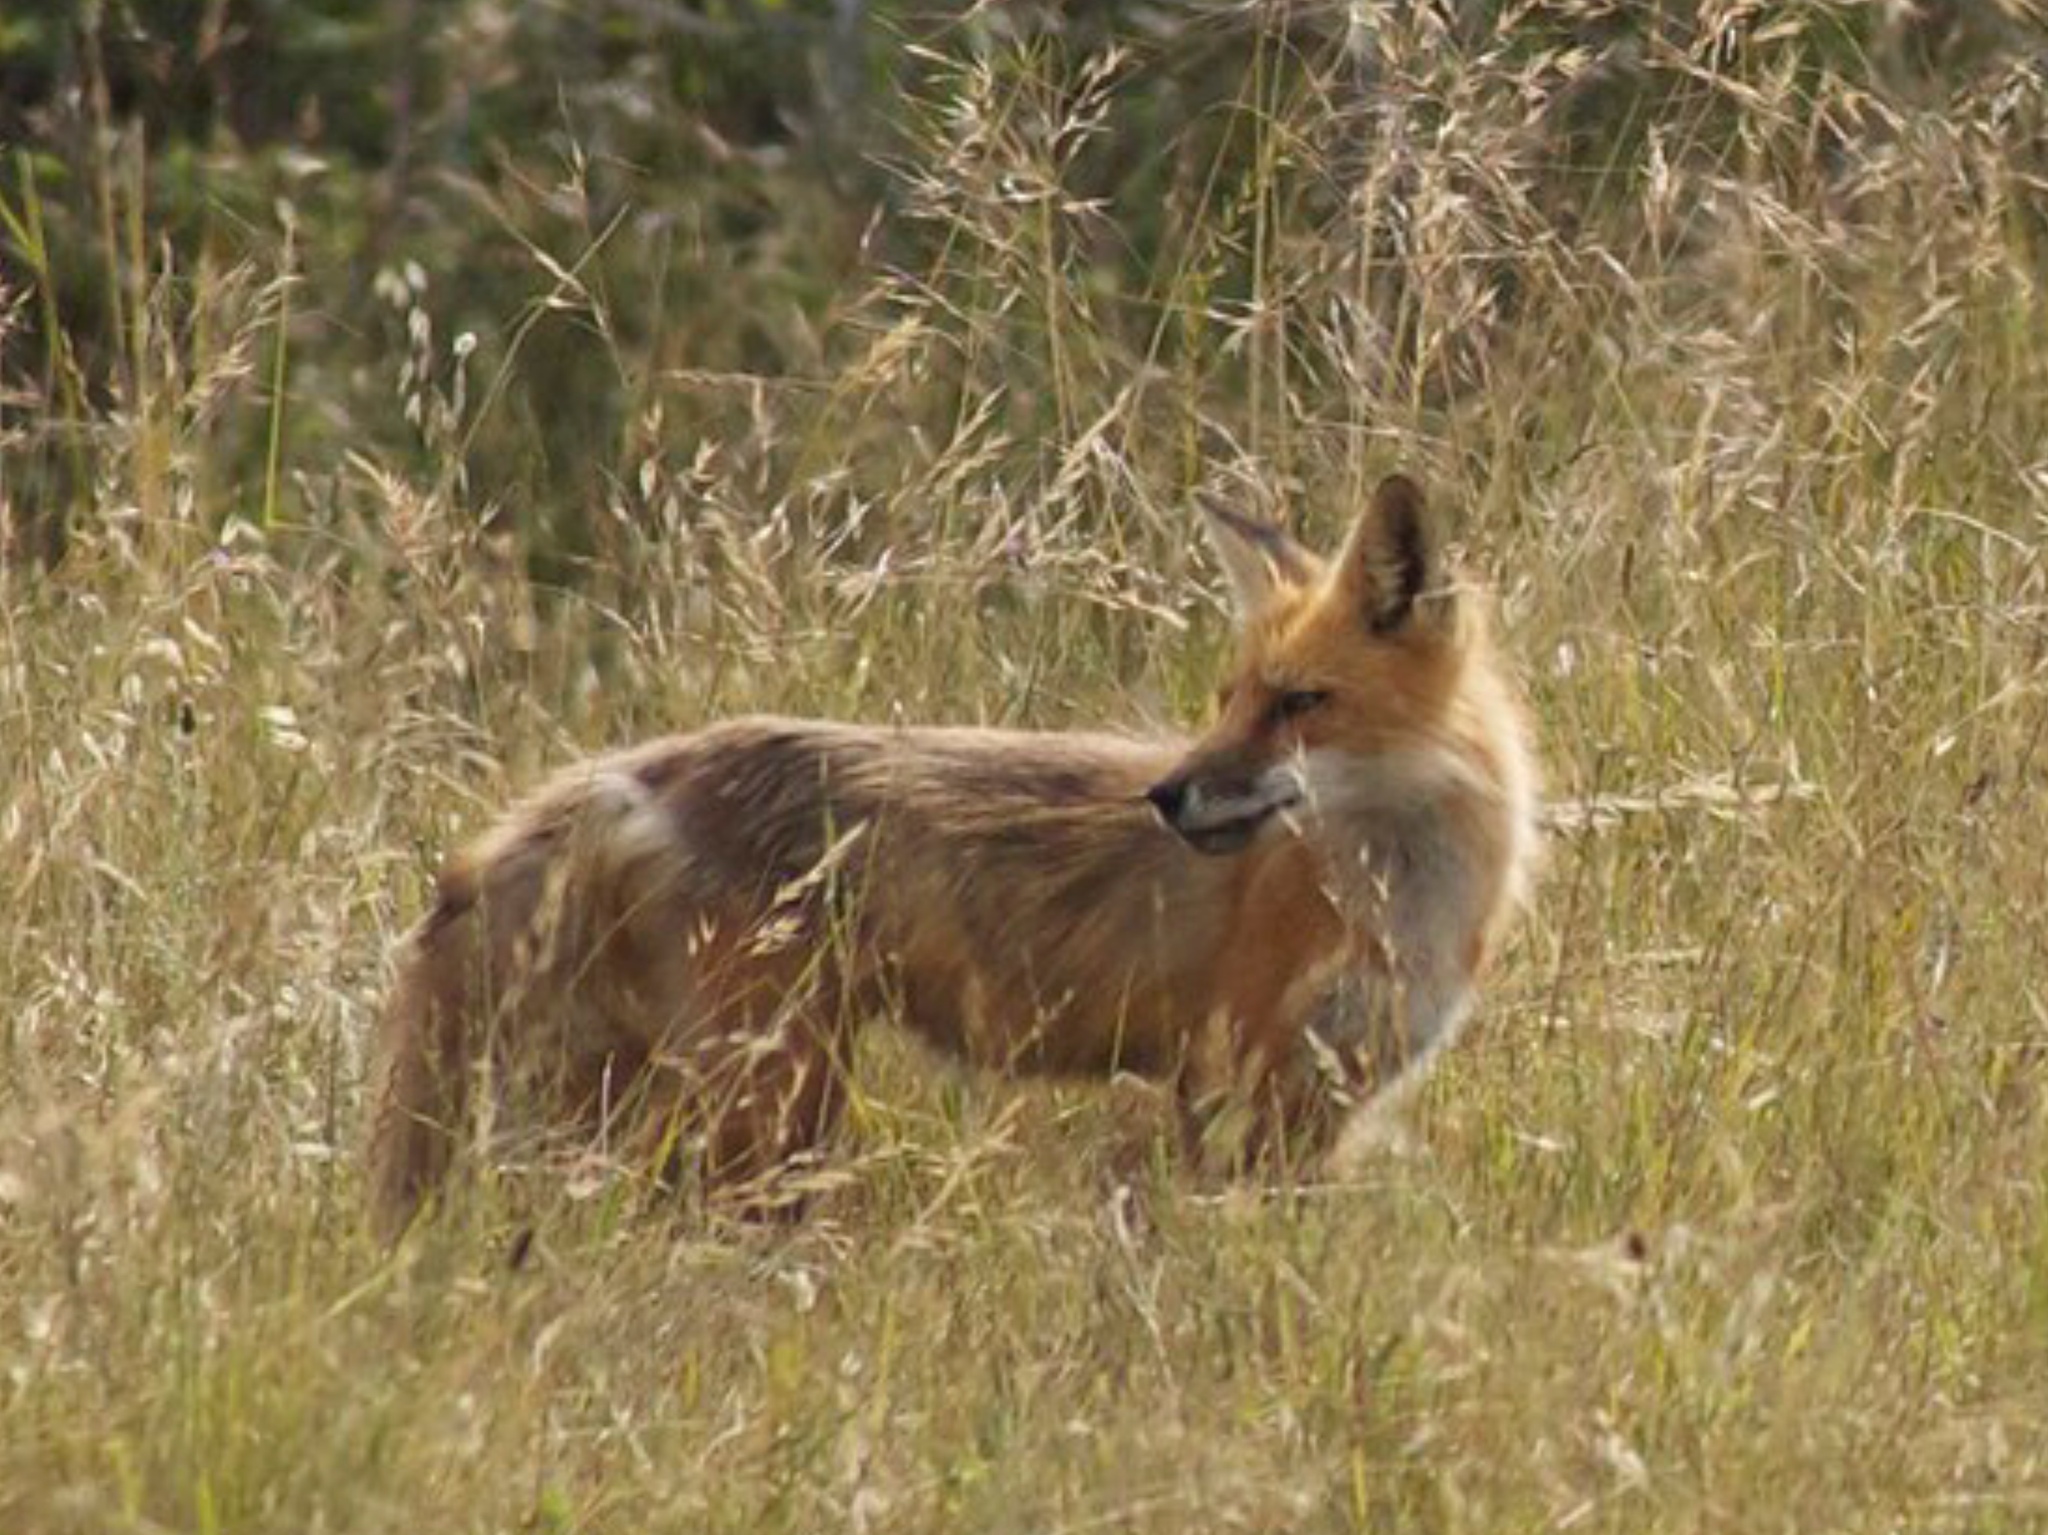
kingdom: Animalia
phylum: Chordata
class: Mammalia
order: Carnivora
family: Canidae
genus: Vulpes
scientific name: Vulpes vulpes
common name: Red fox
